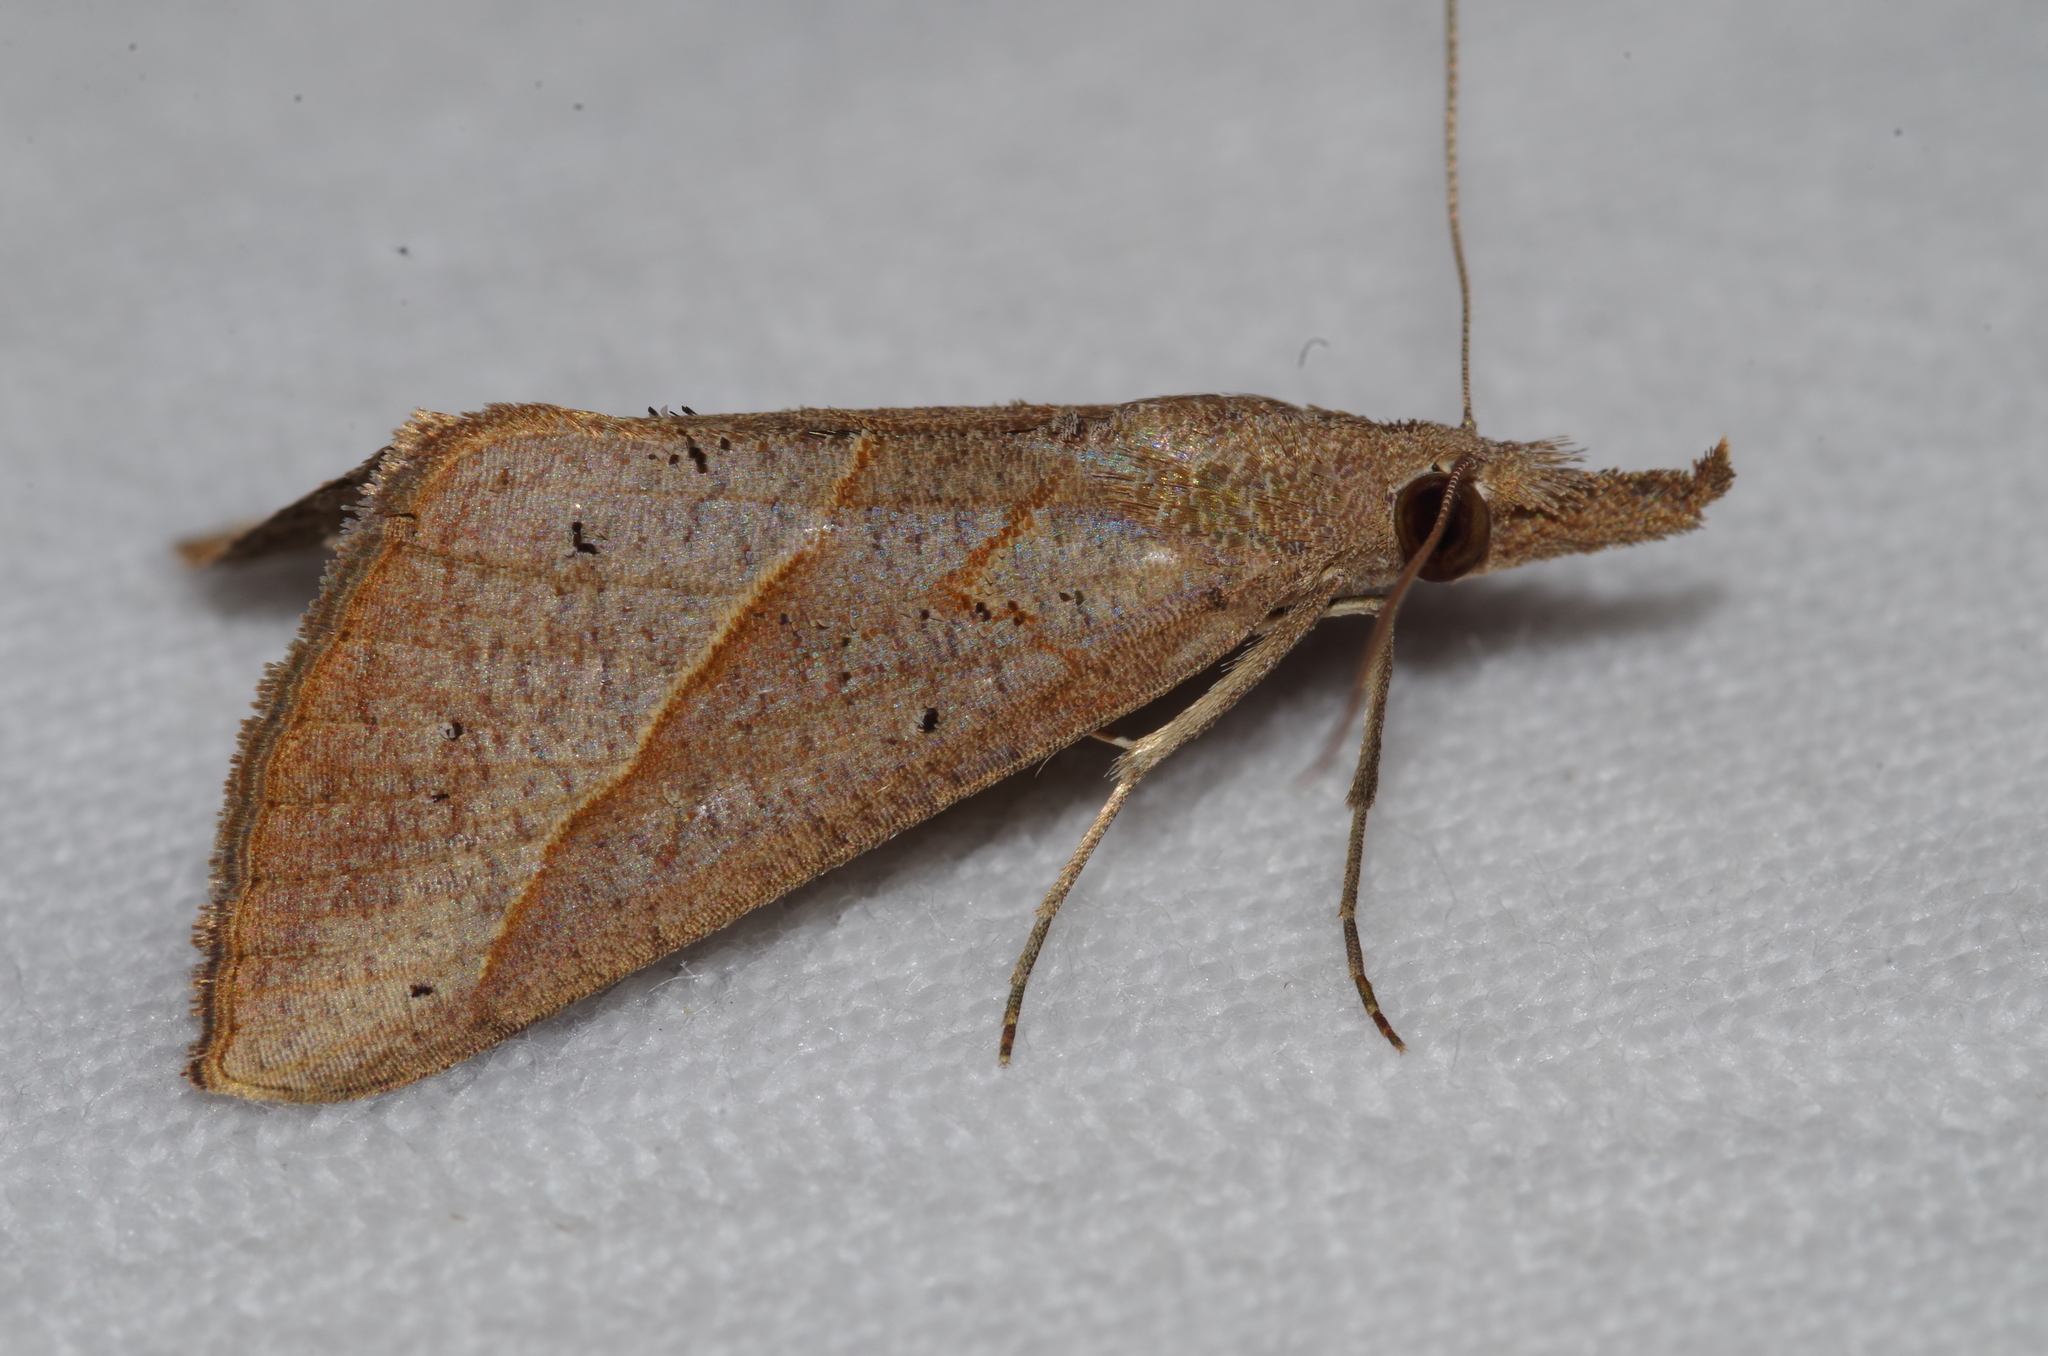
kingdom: Animalia
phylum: Arthropoda
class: Insecta
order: Lepidoptera
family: Erebidae
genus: Hypena
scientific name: Hypena lividalis
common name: Chevron snout
